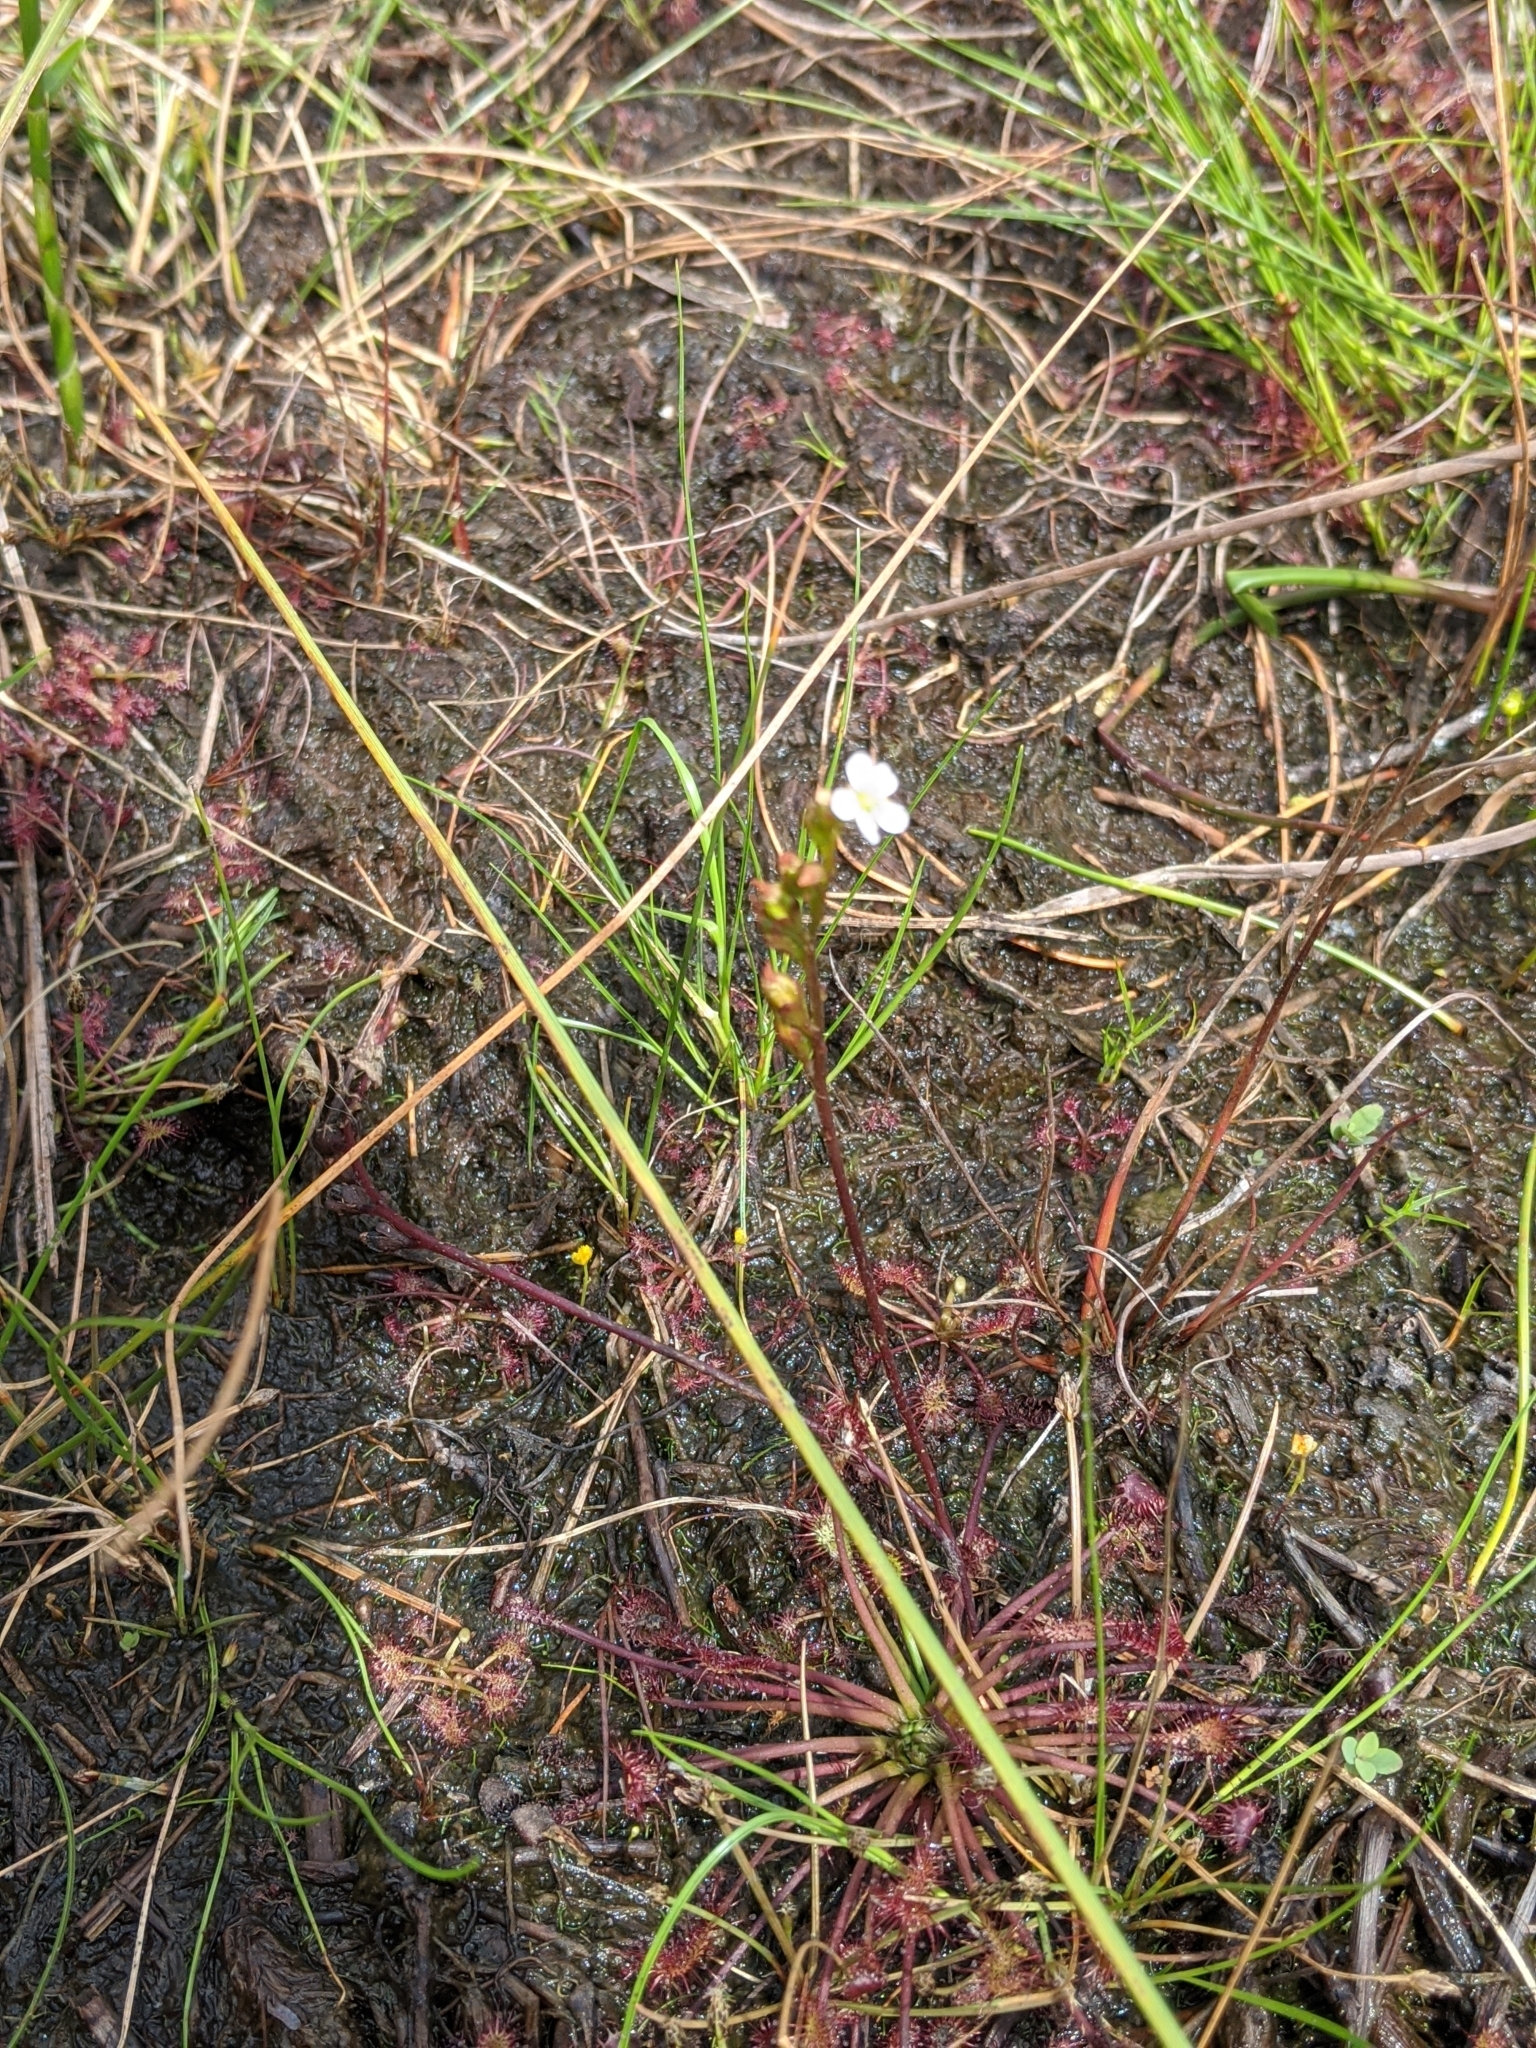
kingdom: Plantae
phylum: Tracheophyta
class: Magnoliopsida
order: Caryophyllales
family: Droseraceae
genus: Drosera
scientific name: Drosera intermedia
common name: Oblong-leaved sundew
